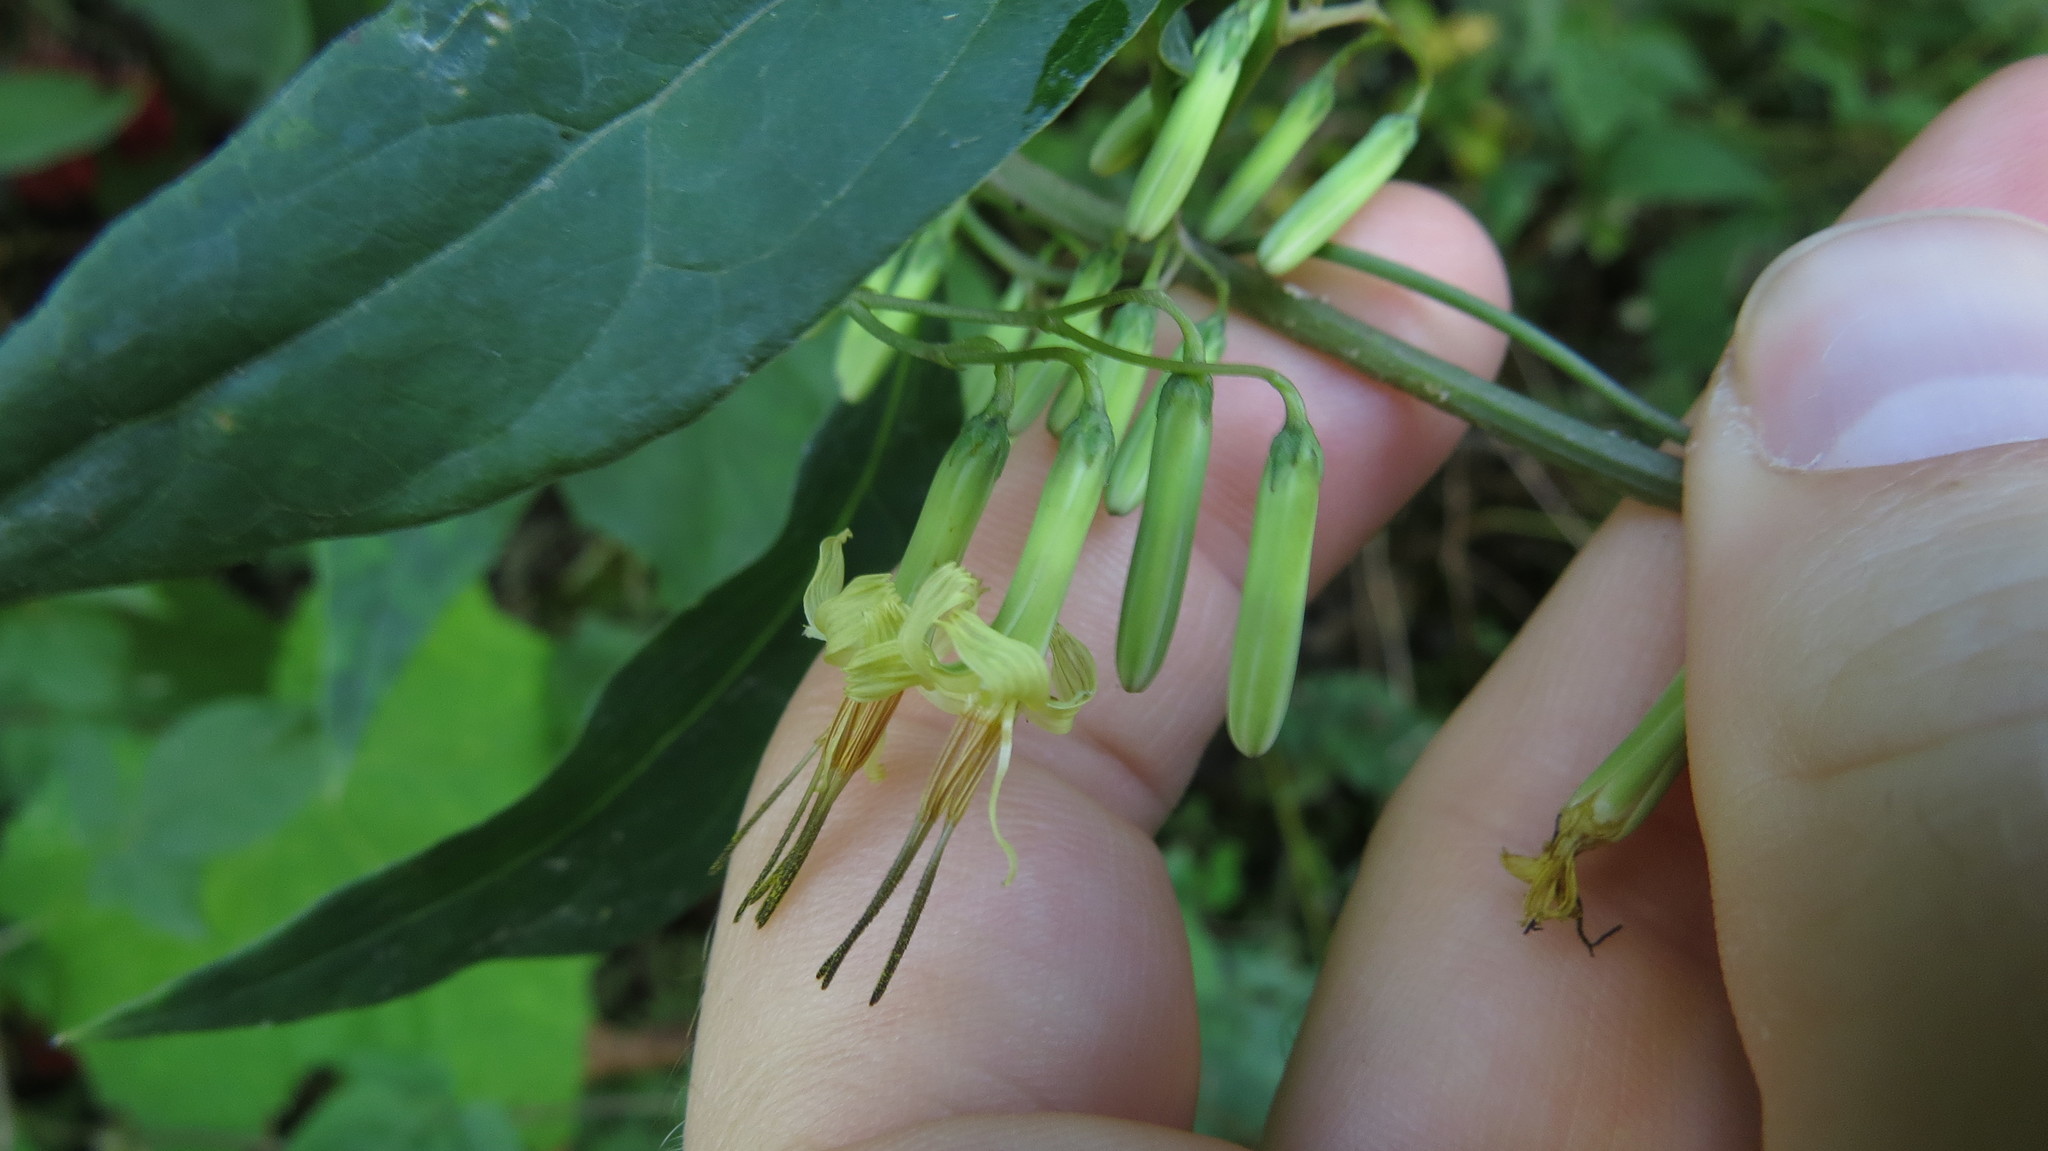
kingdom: Plantae
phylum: Tracheophyta
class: Magnoliopsida
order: Asterales
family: Asteraceae
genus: Nabalus
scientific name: Nabalus altissima
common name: Tall rattlesnakeroot
